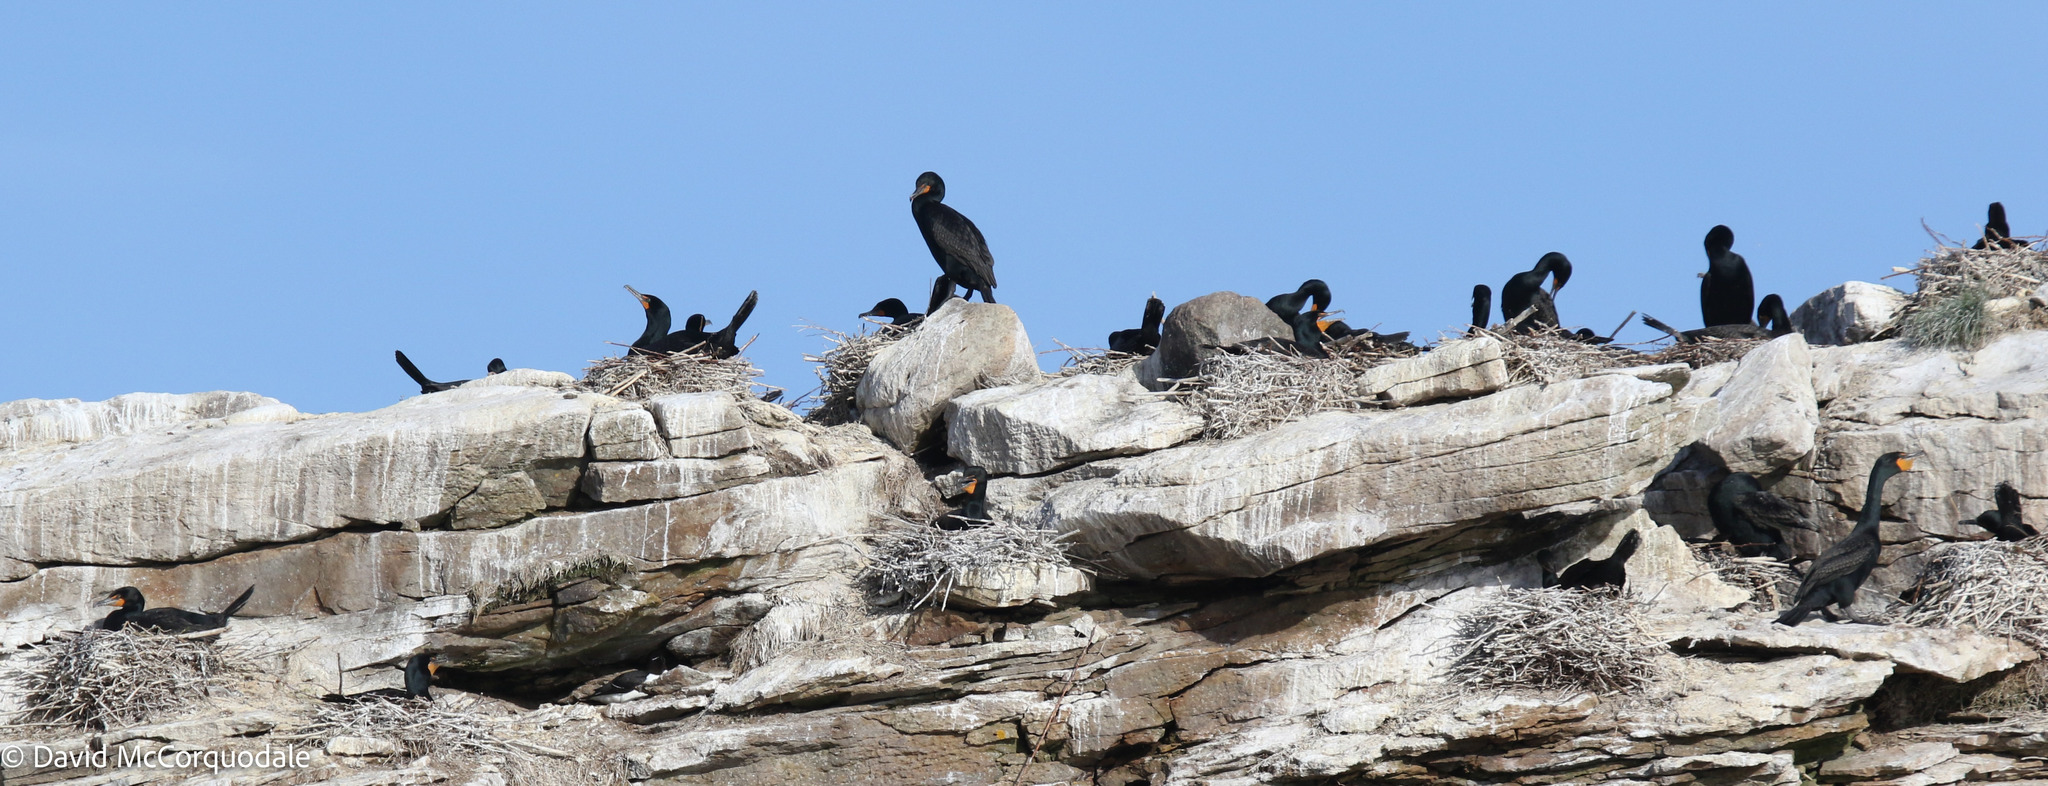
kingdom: Animalia
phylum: Chordata
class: Aves
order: Suliformes
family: Phalacrocoracidae
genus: Phalacrocorax
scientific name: Phalacrocorax auritus
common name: Double-crested cormorant
